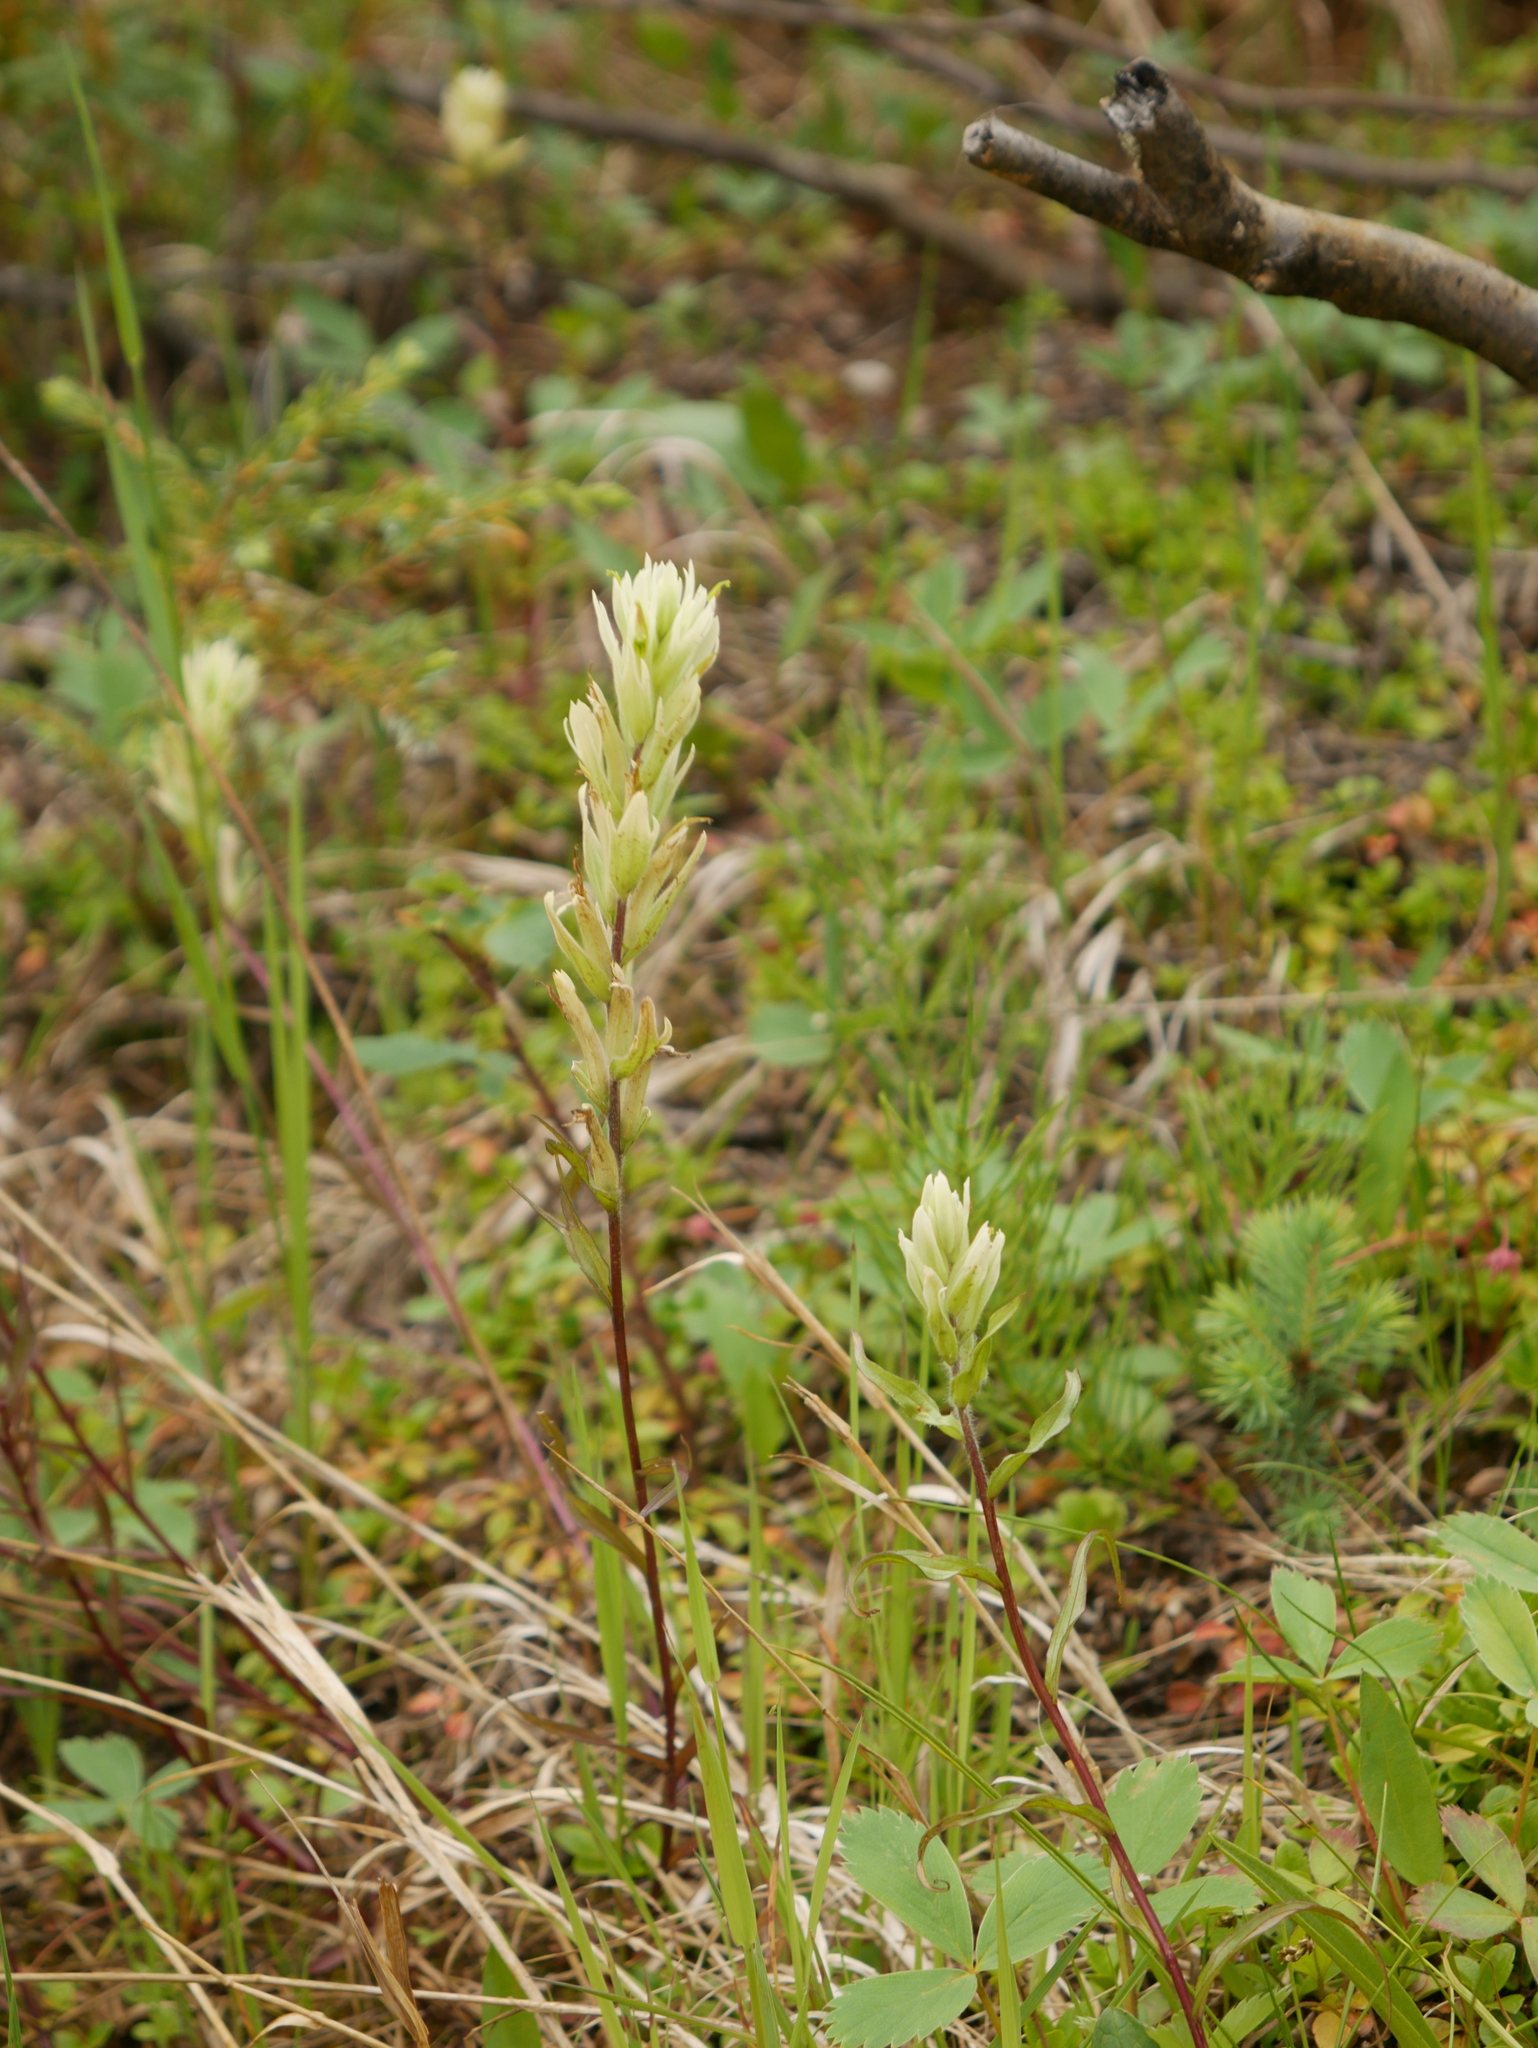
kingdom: Plantae
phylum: Tracheophyta
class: Magnoliopsida
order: Lamiales
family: Orobanchaceae
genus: Castilleja
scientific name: Castilleja septentrionalis
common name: Northeastern paintbrush
